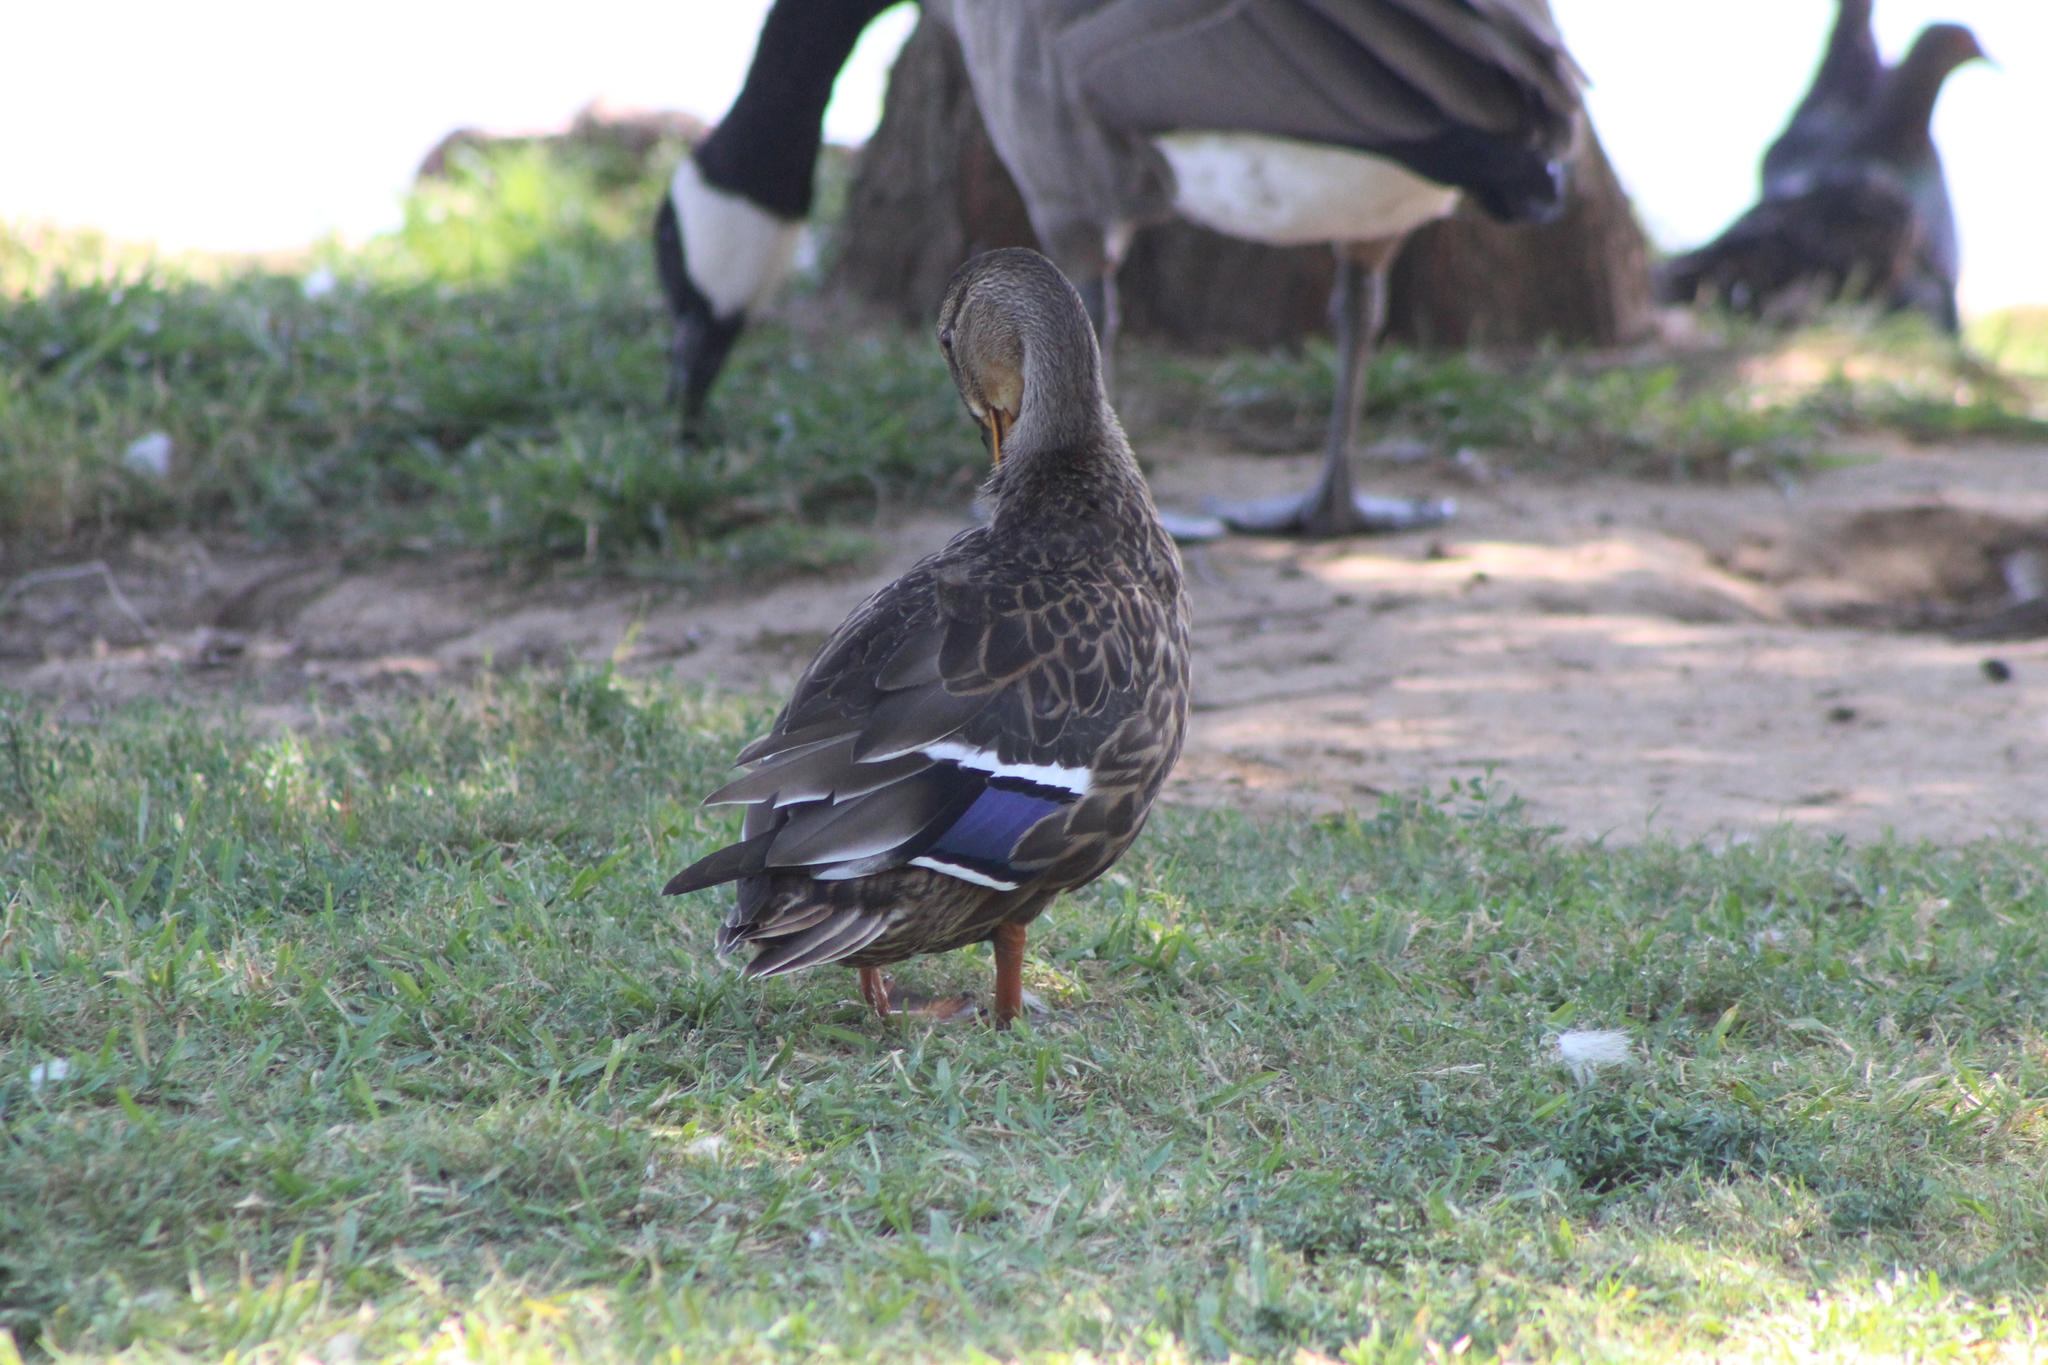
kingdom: Animalia
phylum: Chordata
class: Aves
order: Anseriformes
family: Anatidae
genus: Anas
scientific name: Anas platyrhynchos
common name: Mallard
